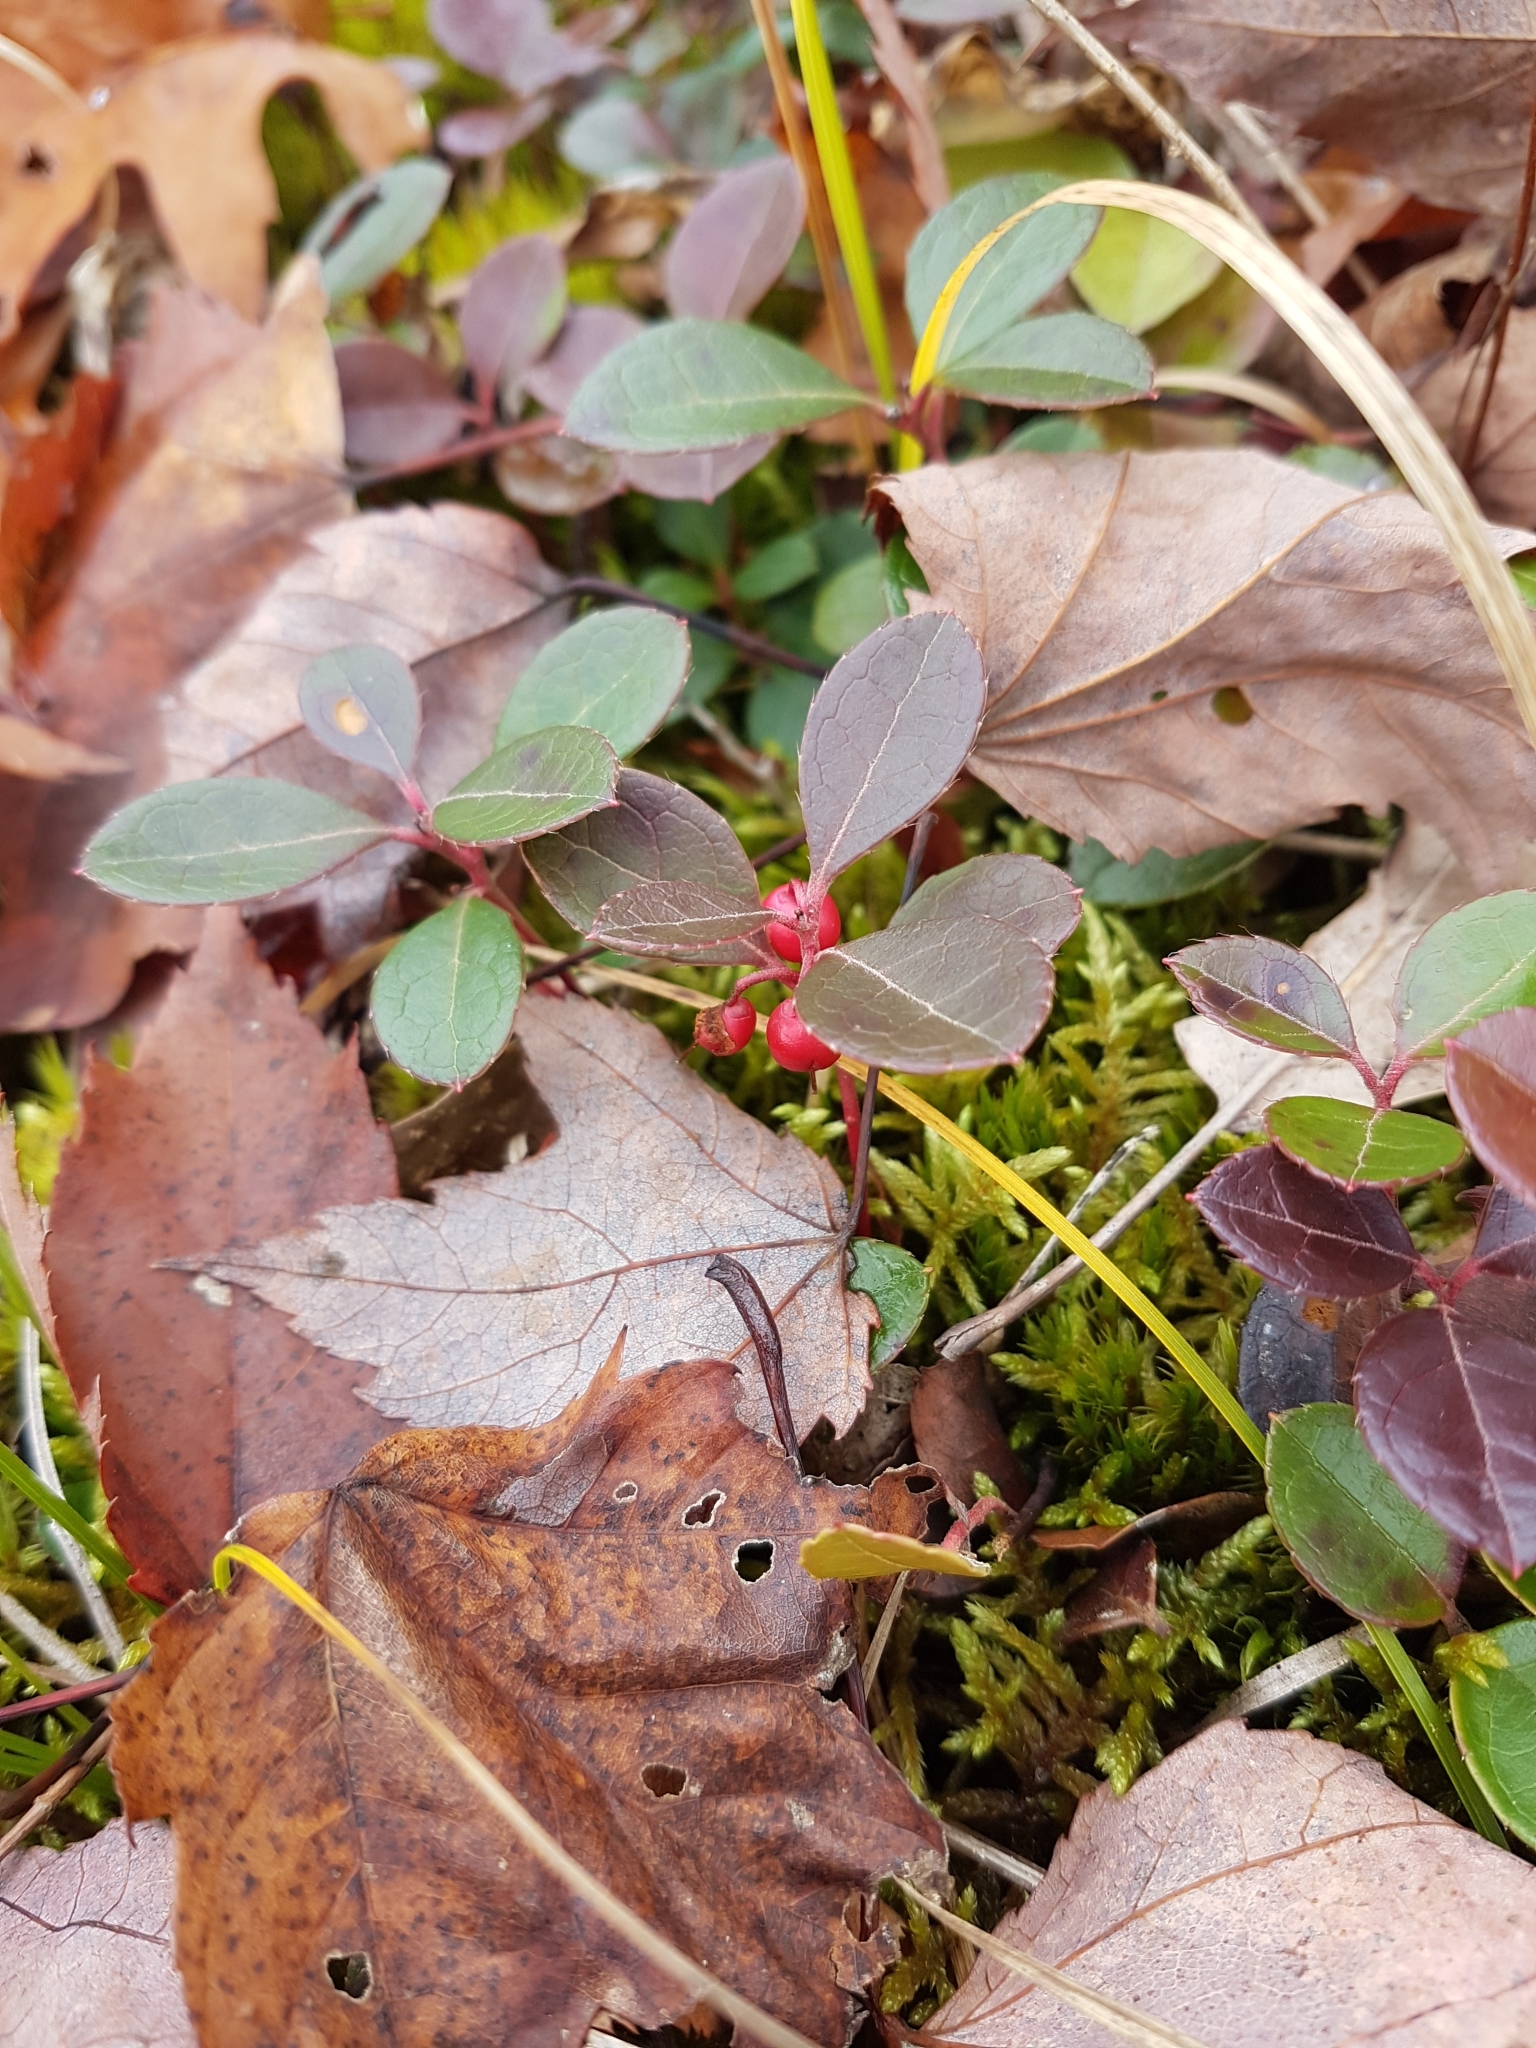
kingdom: Plantae
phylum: Tracheophyta
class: Magnoliopsida
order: Ericales
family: Ericaceae
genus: Gaultheria
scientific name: Gaultheria procumbens
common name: Checkerberry
